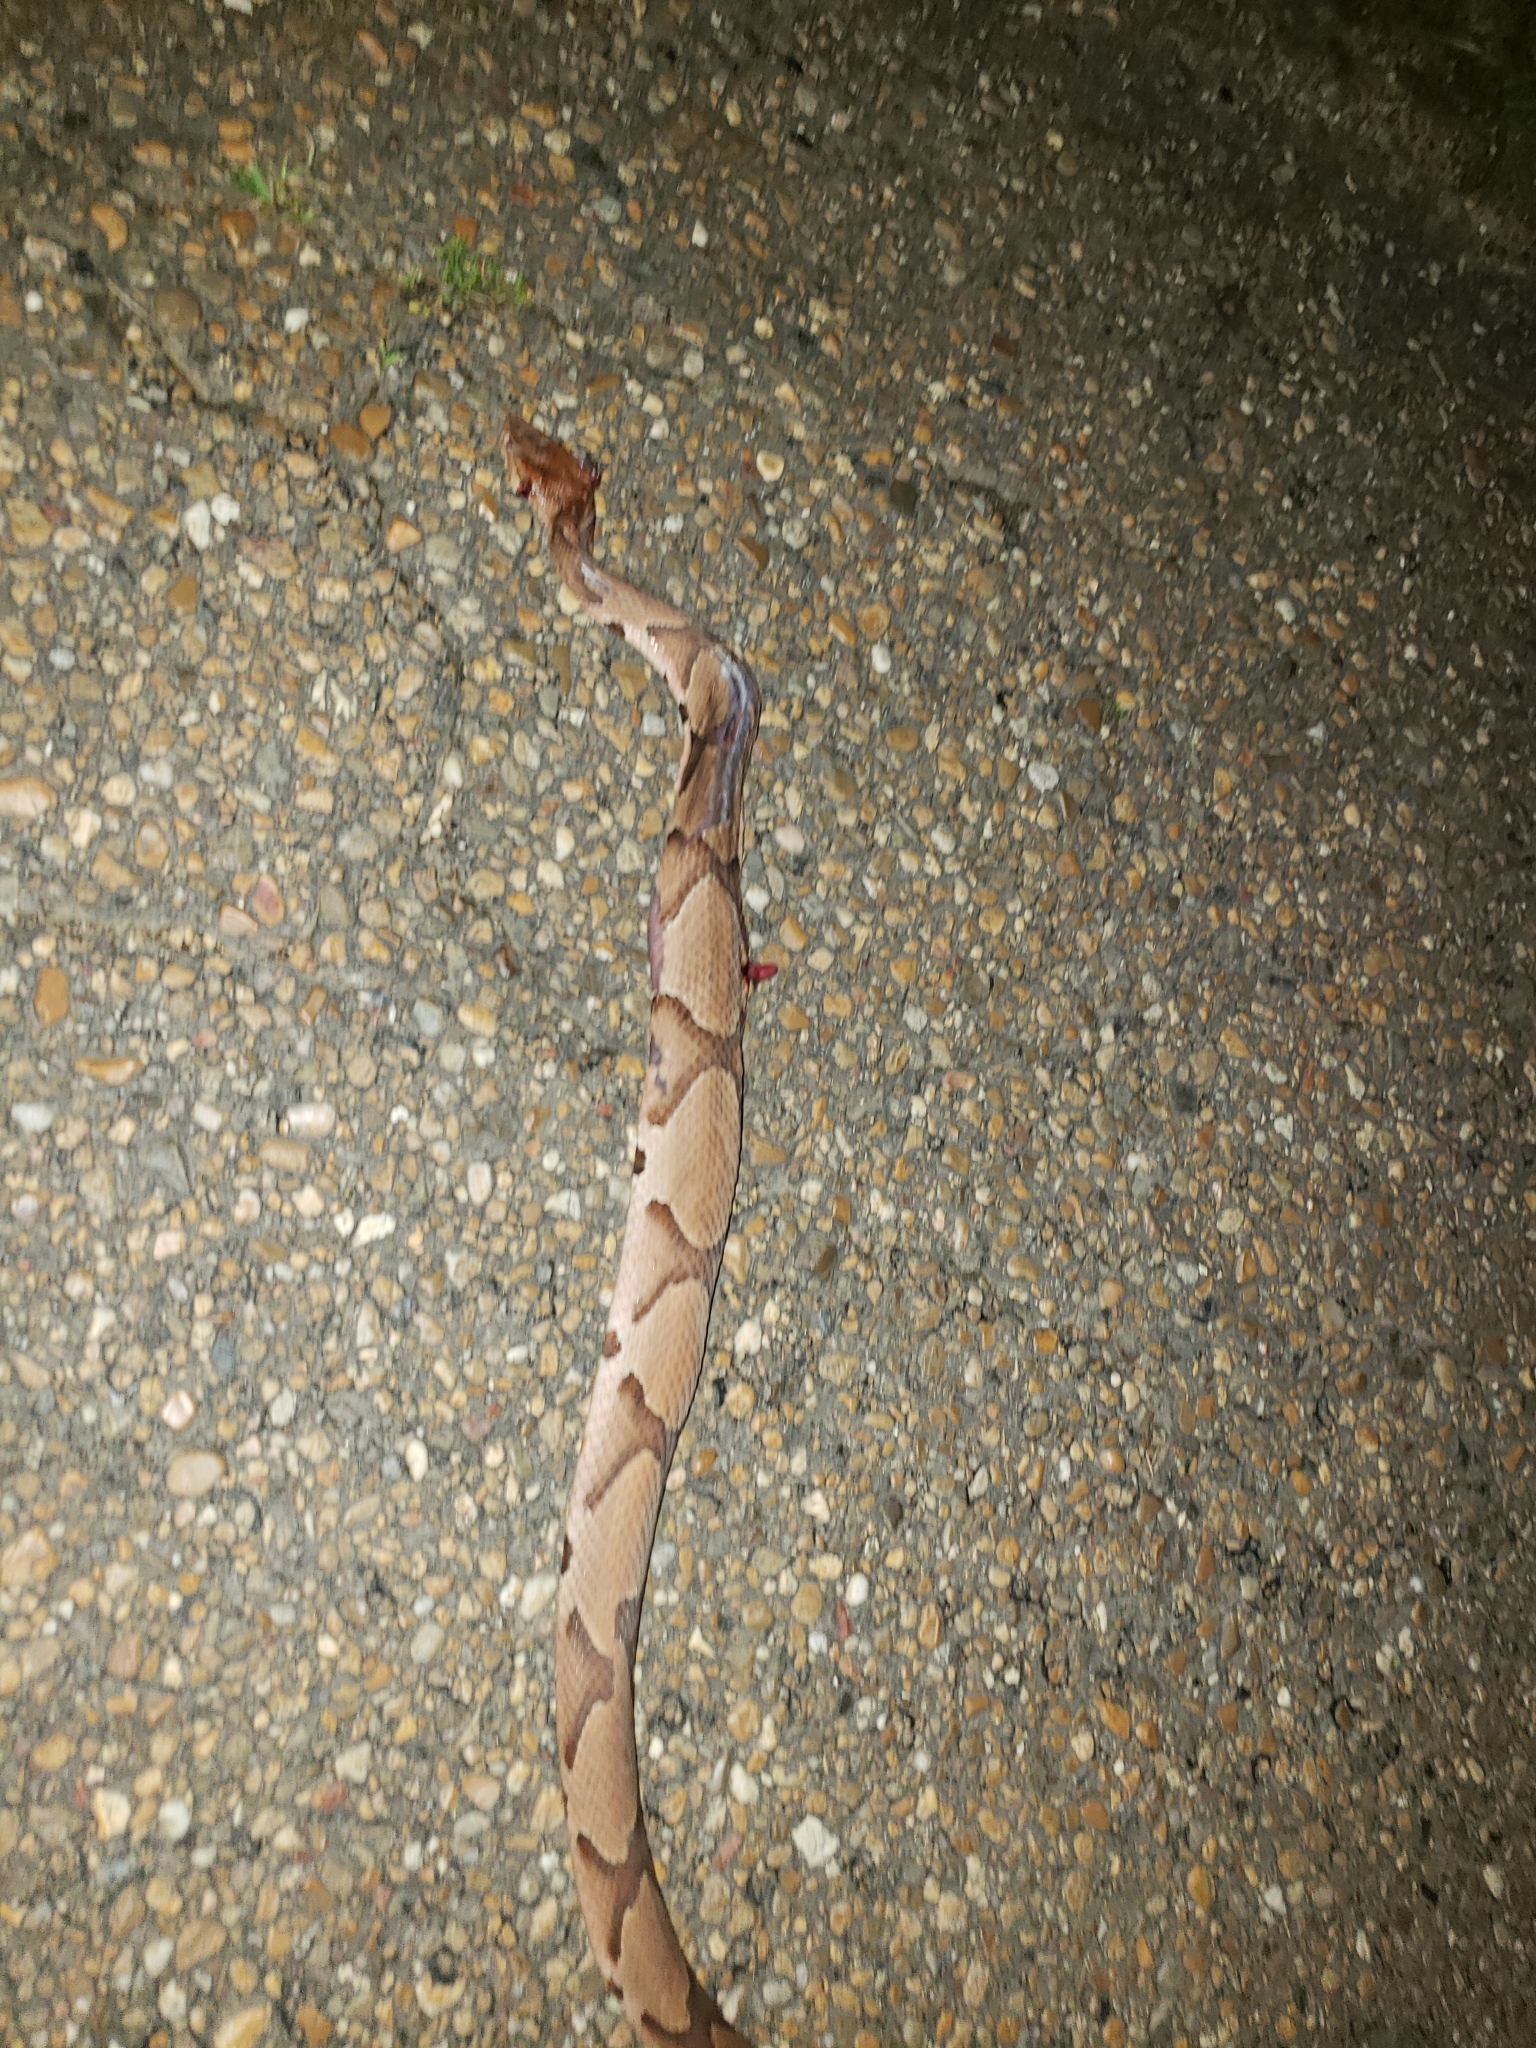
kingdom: Animalia
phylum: Chordata
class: Squamata
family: Viperidae
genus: Agkistrodon
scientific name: Agkistrodon contortrix
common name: Northern copperhead
